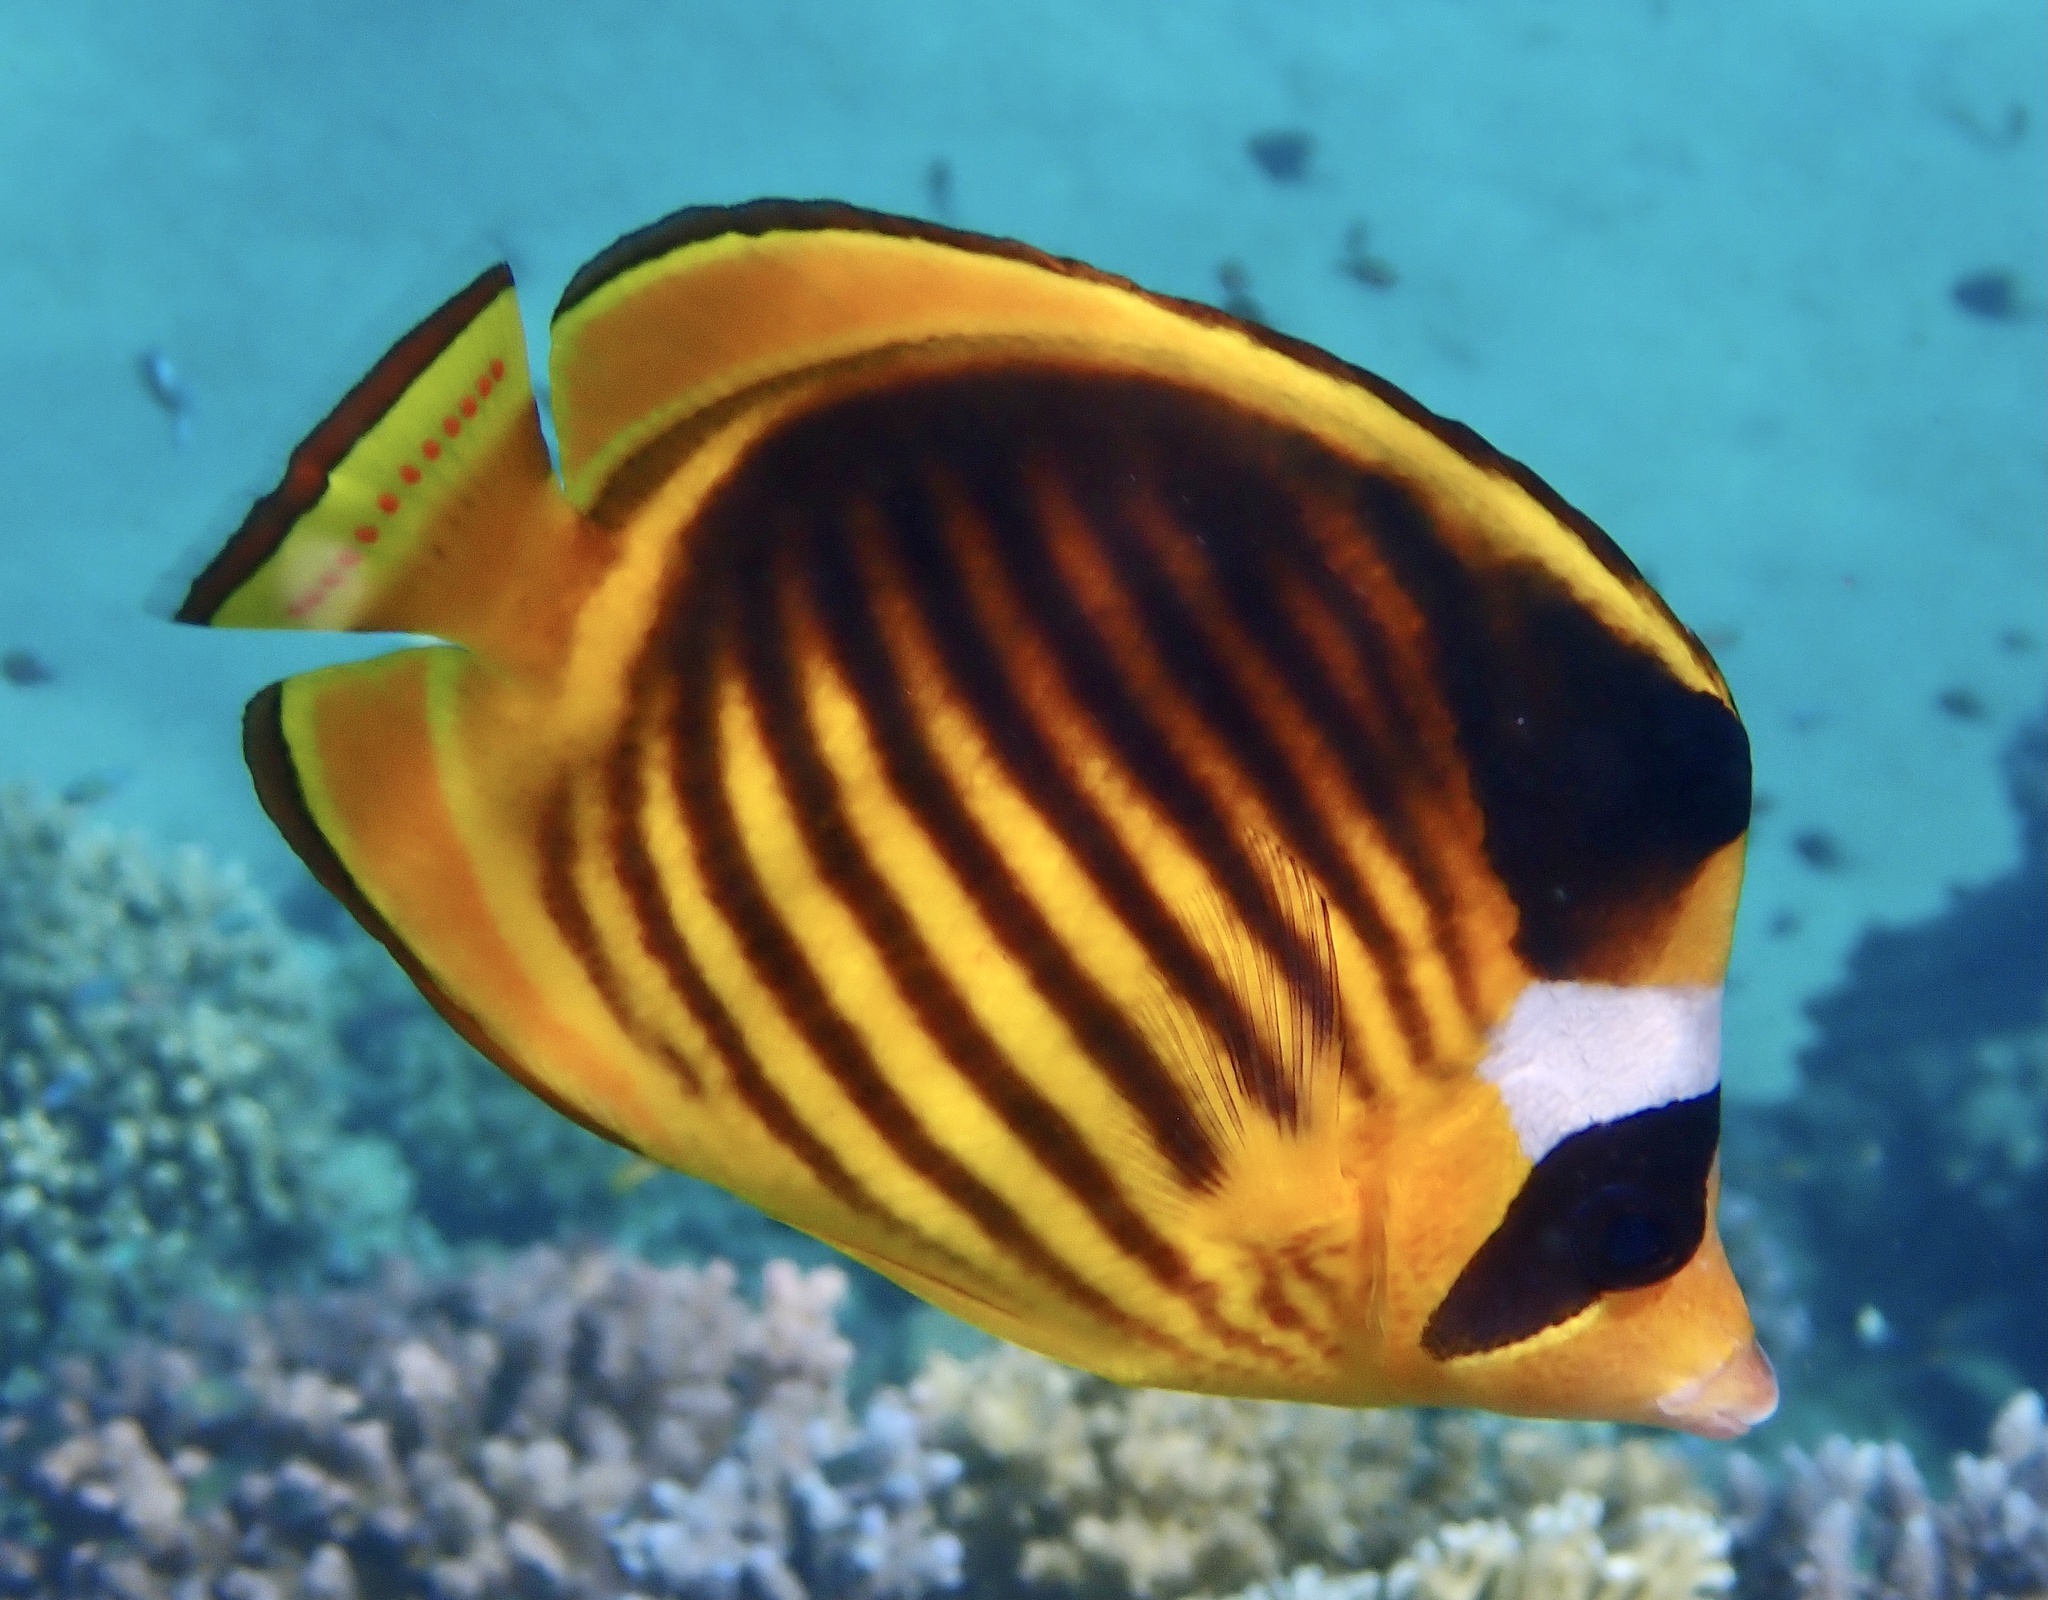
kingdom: Animalia
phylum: Chordata
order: Perciformes
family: Chaetodontidae
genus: Chaetodon
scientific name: Chaetodon fasciatus
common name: Diagonal butterflyfish
